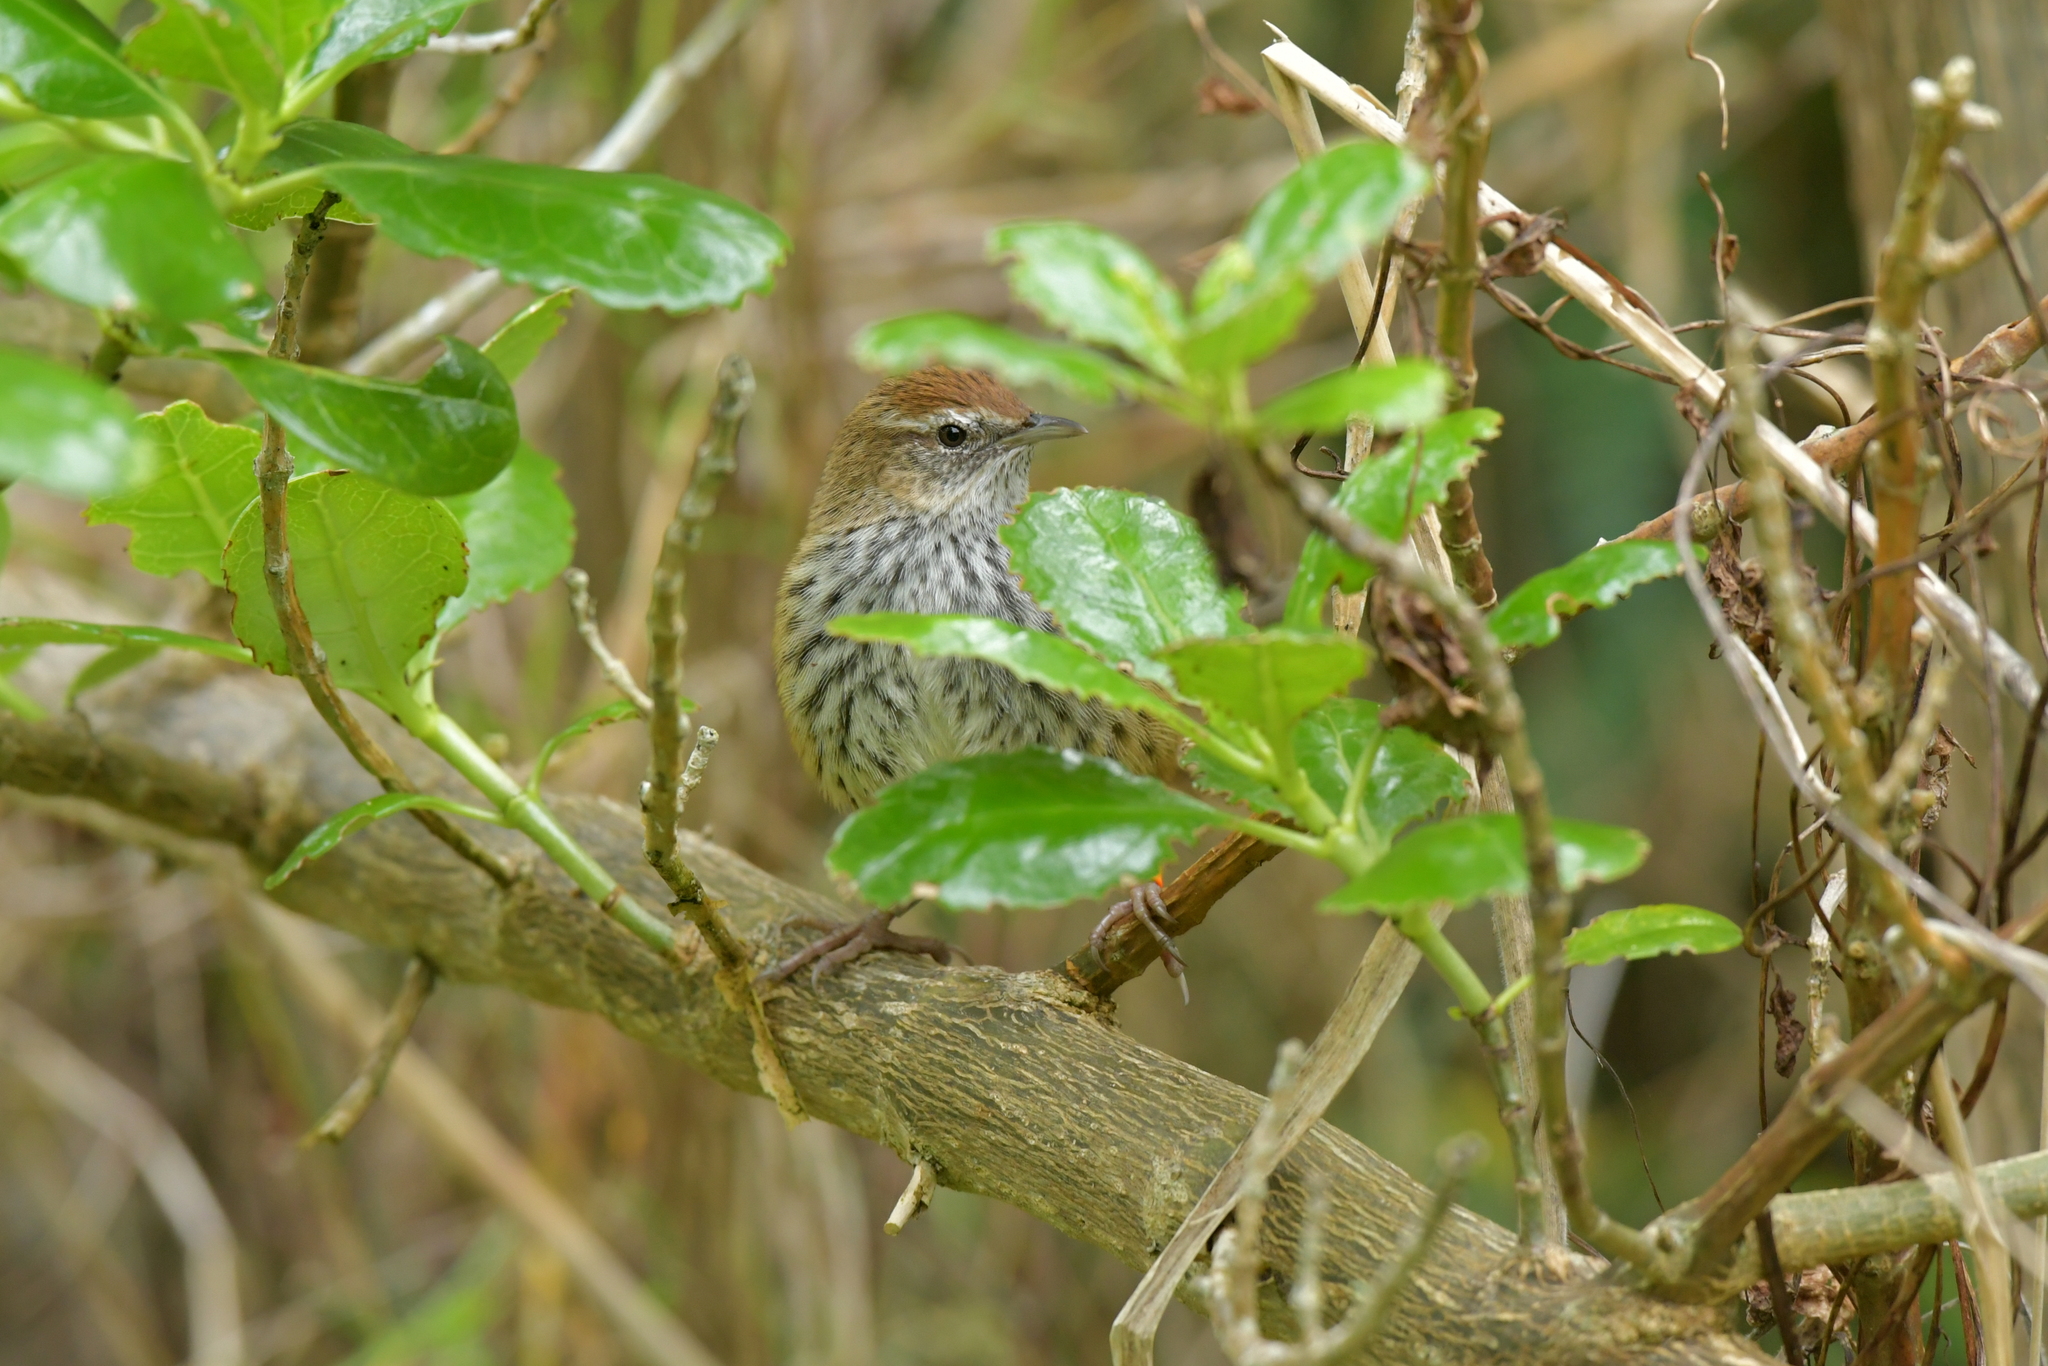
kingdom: Animalia
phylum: Chordata
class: Aves
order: Passeriformes
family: Locustellidae
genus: Megalurus
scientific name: Megalurus punctatus
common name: New zealand fernbird
